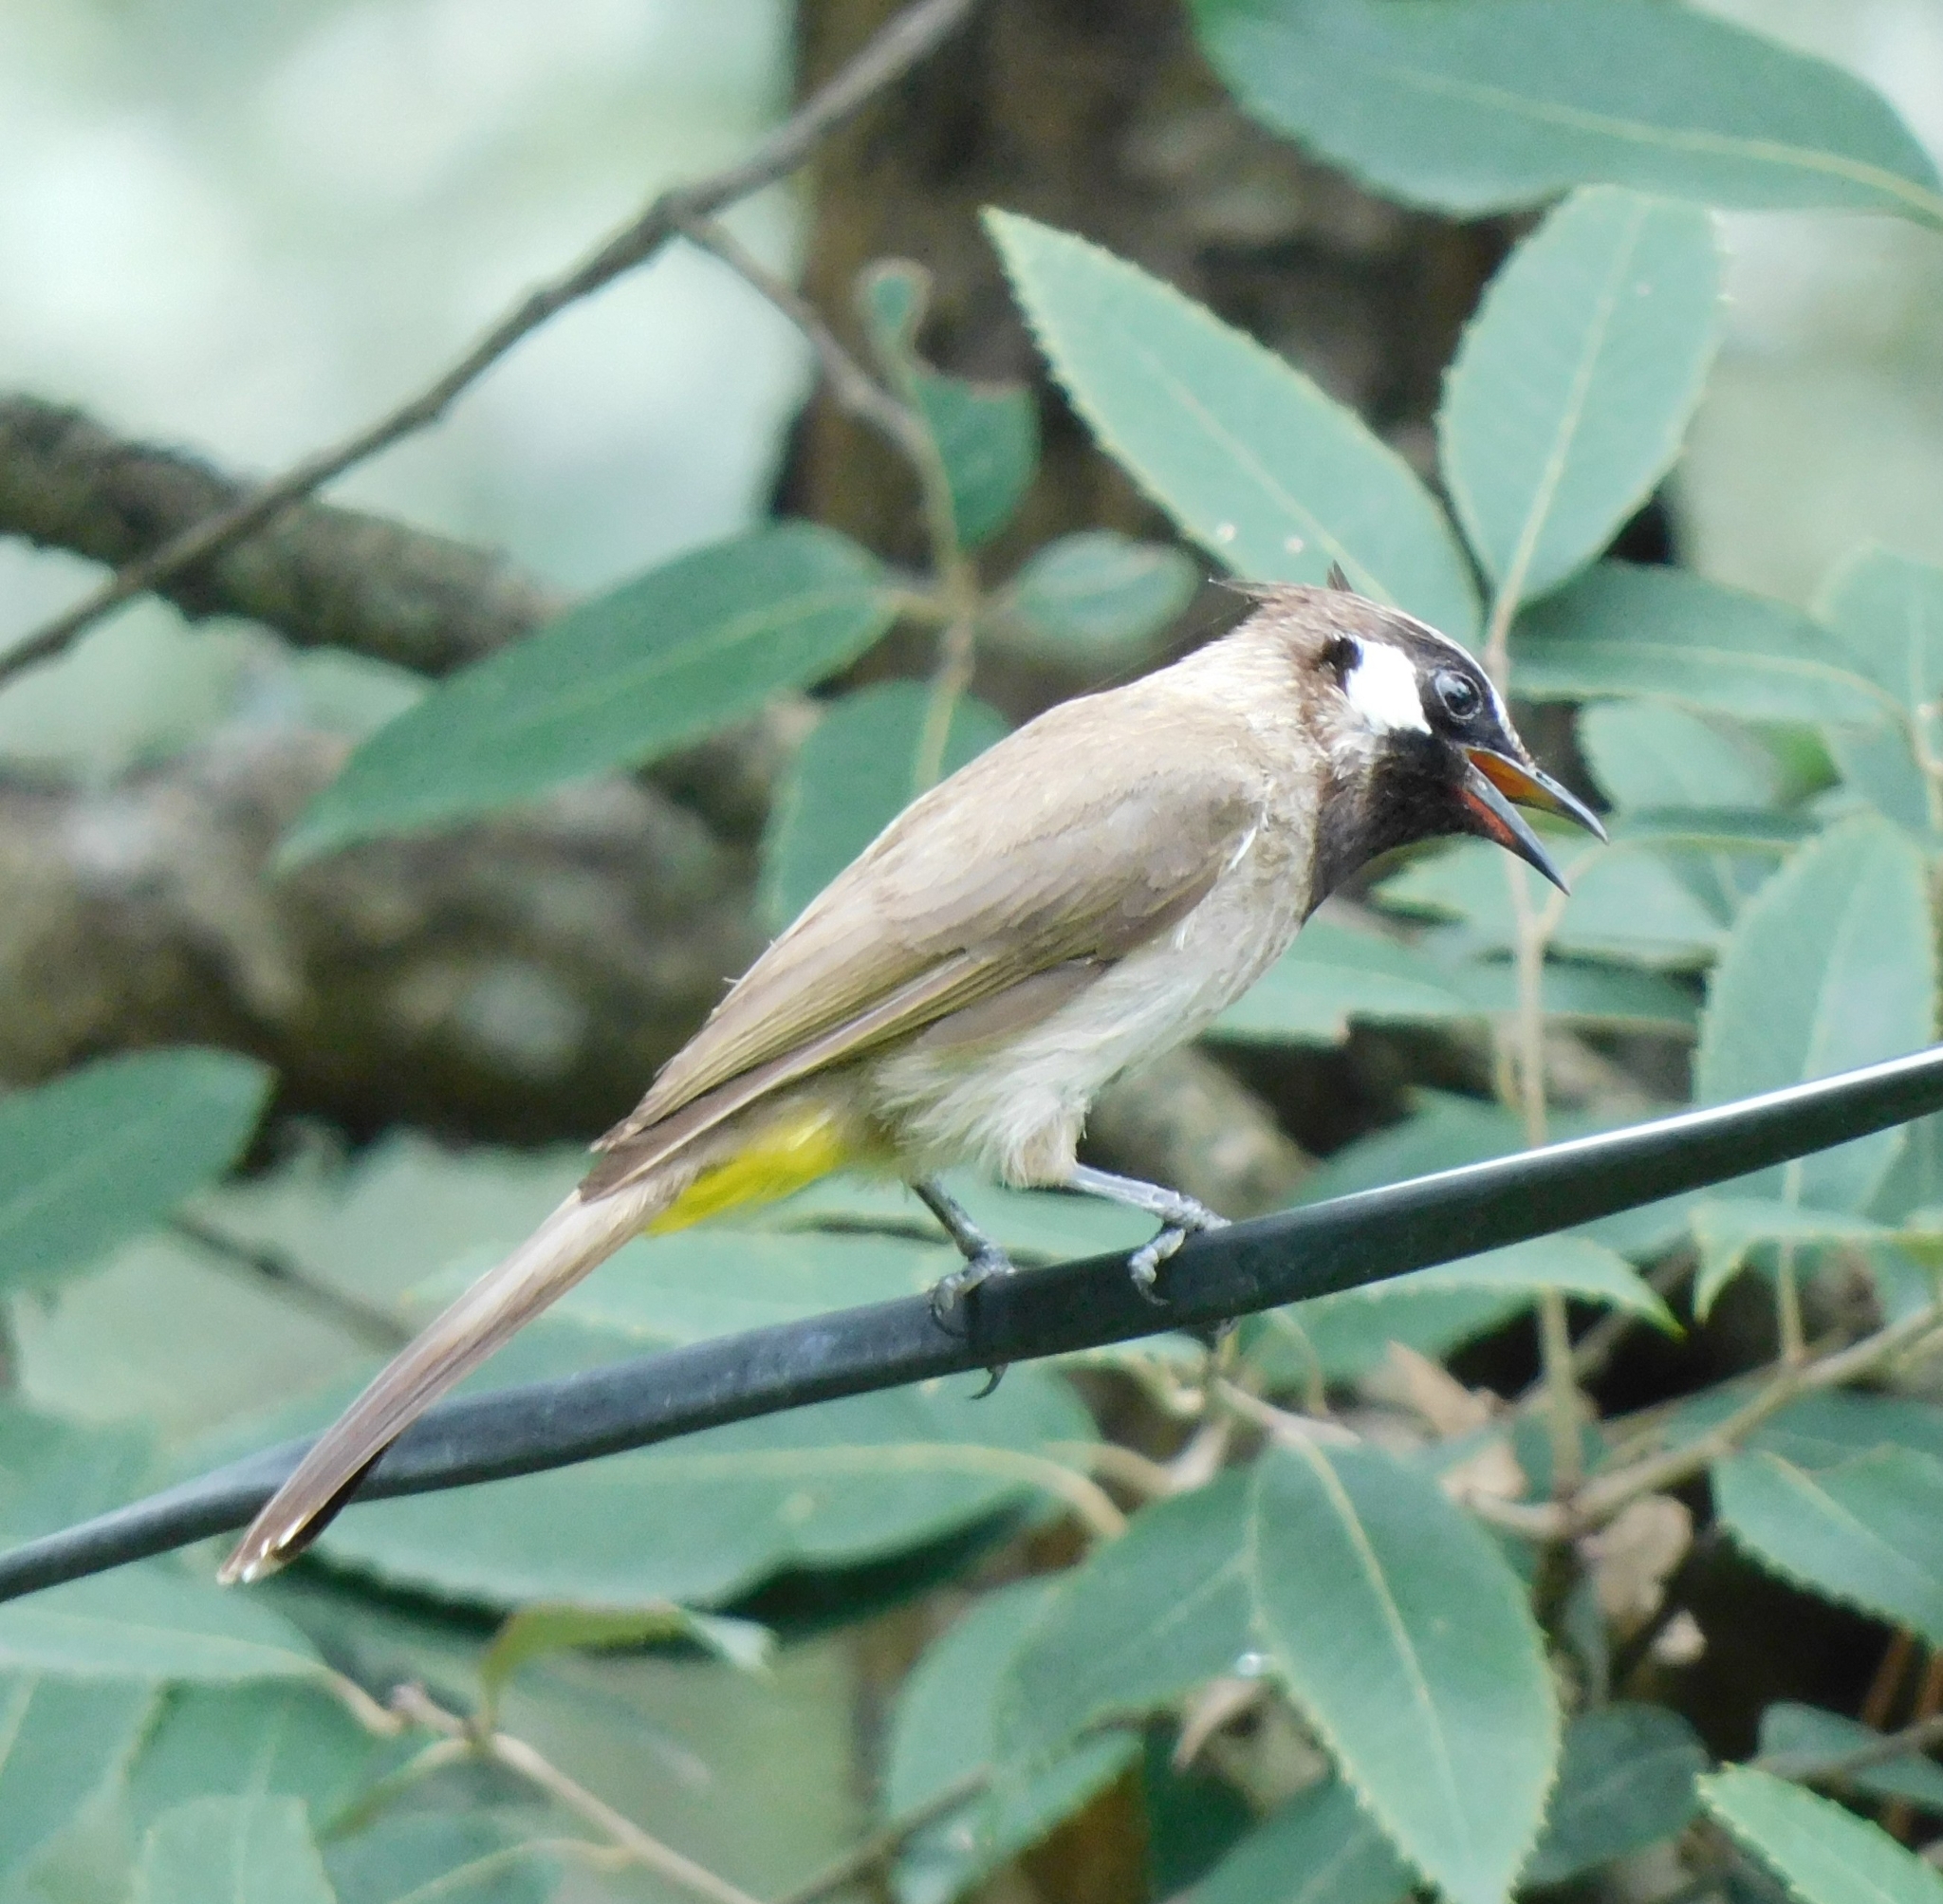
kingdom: Animalia
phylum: Chordata
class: Aves
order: Passeriformes
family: Pycnonotidae
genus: Pycnonotus
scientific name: Pycnonotus leucogenys
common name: Himalayan bulbul
